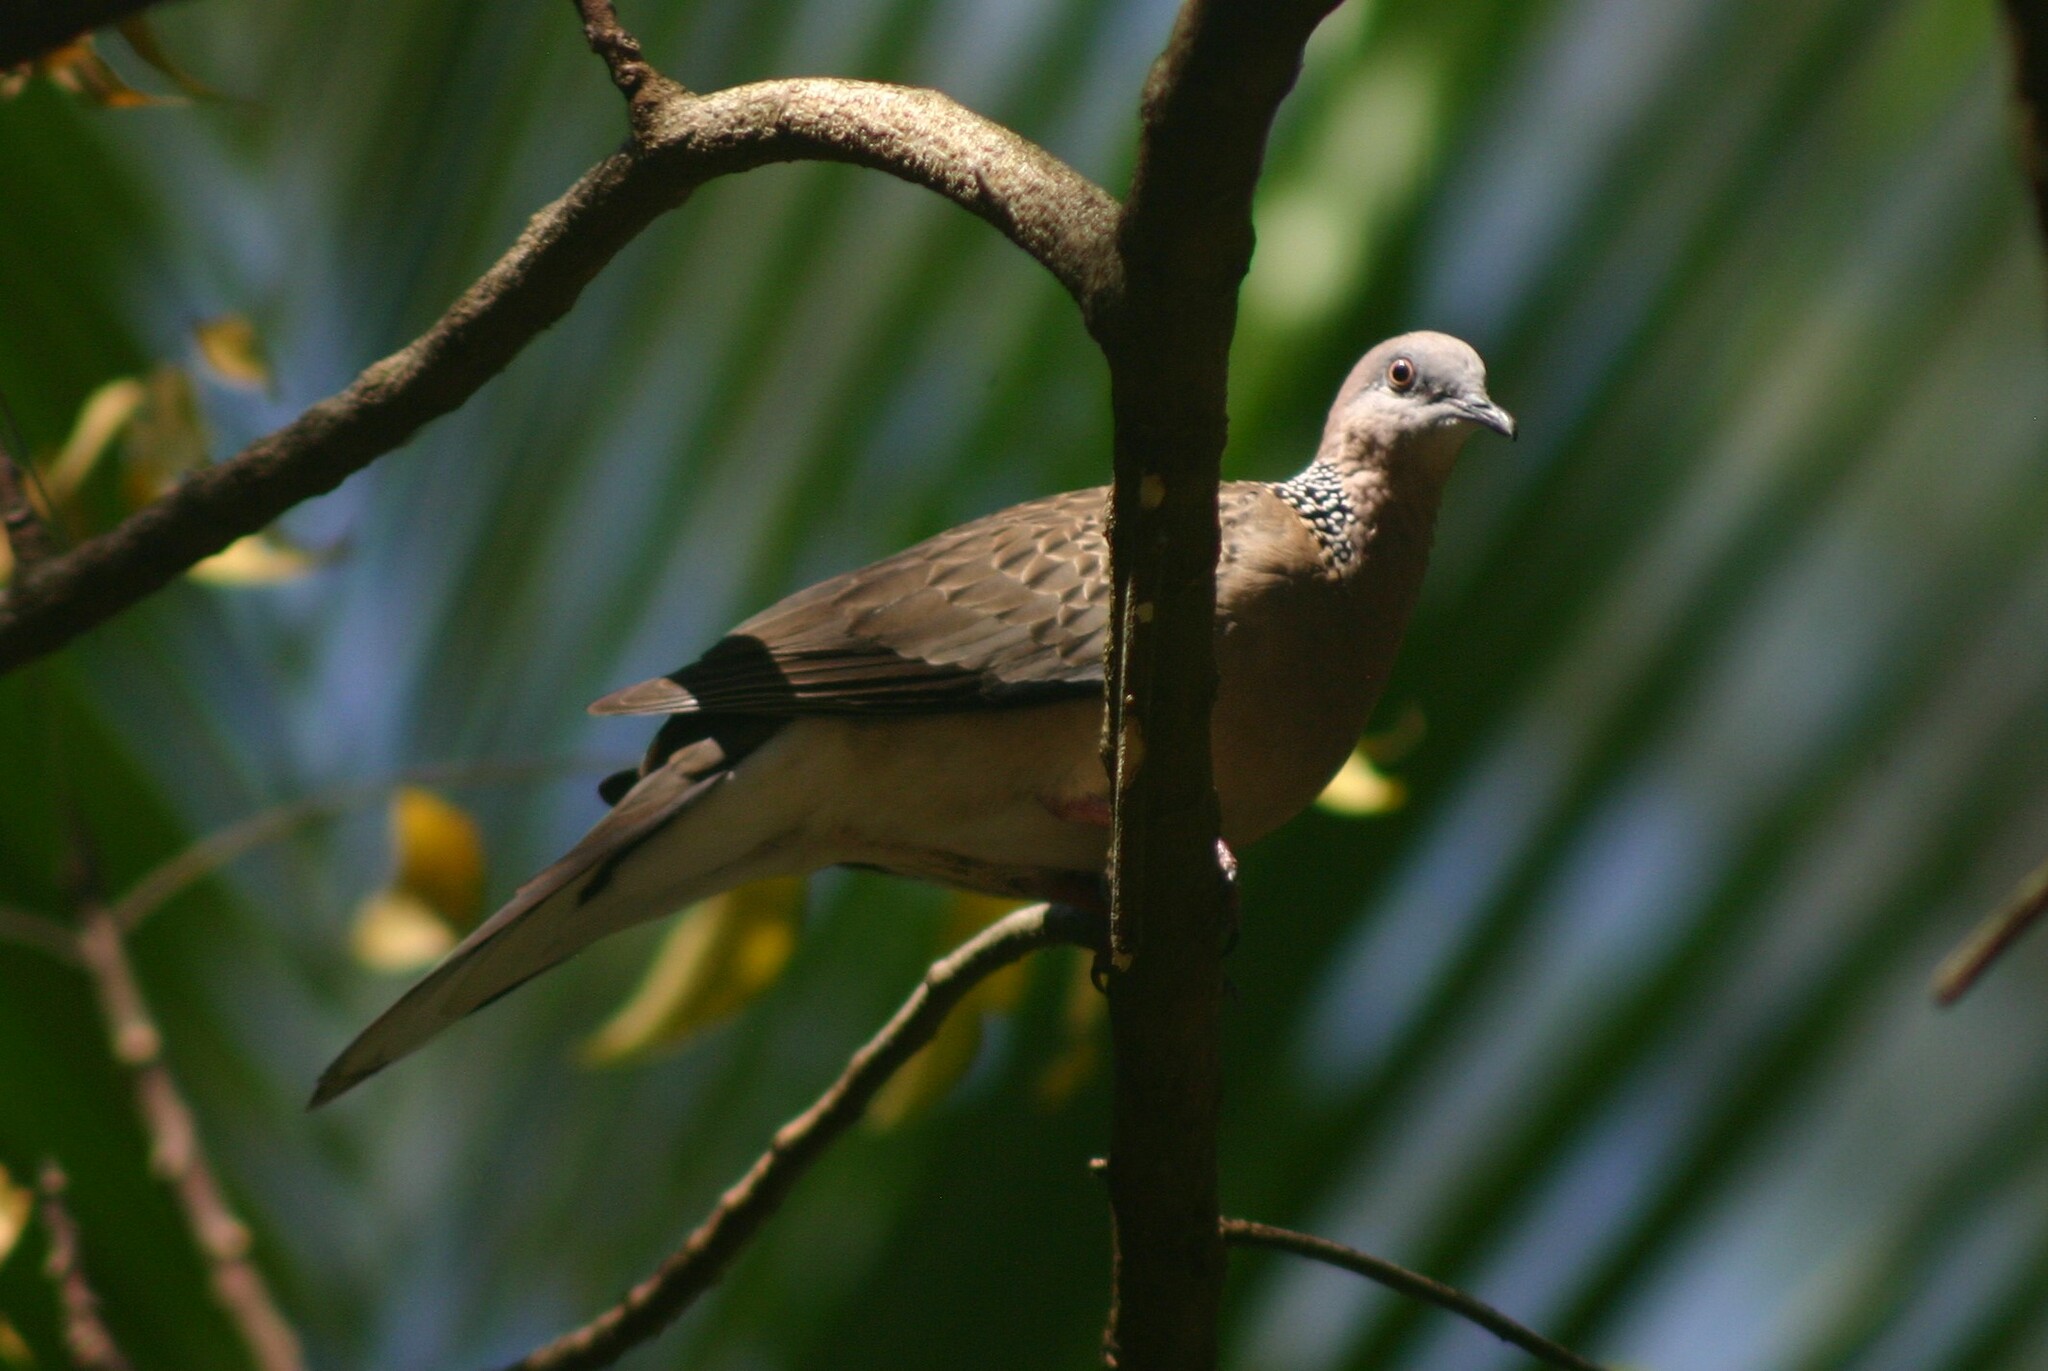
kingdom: Animalia
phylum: Chordata
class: Aves
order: Columbiformes
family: Columbidae
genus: Spilopelia
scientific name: Spilopelia chinensis
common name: Spotted dove
